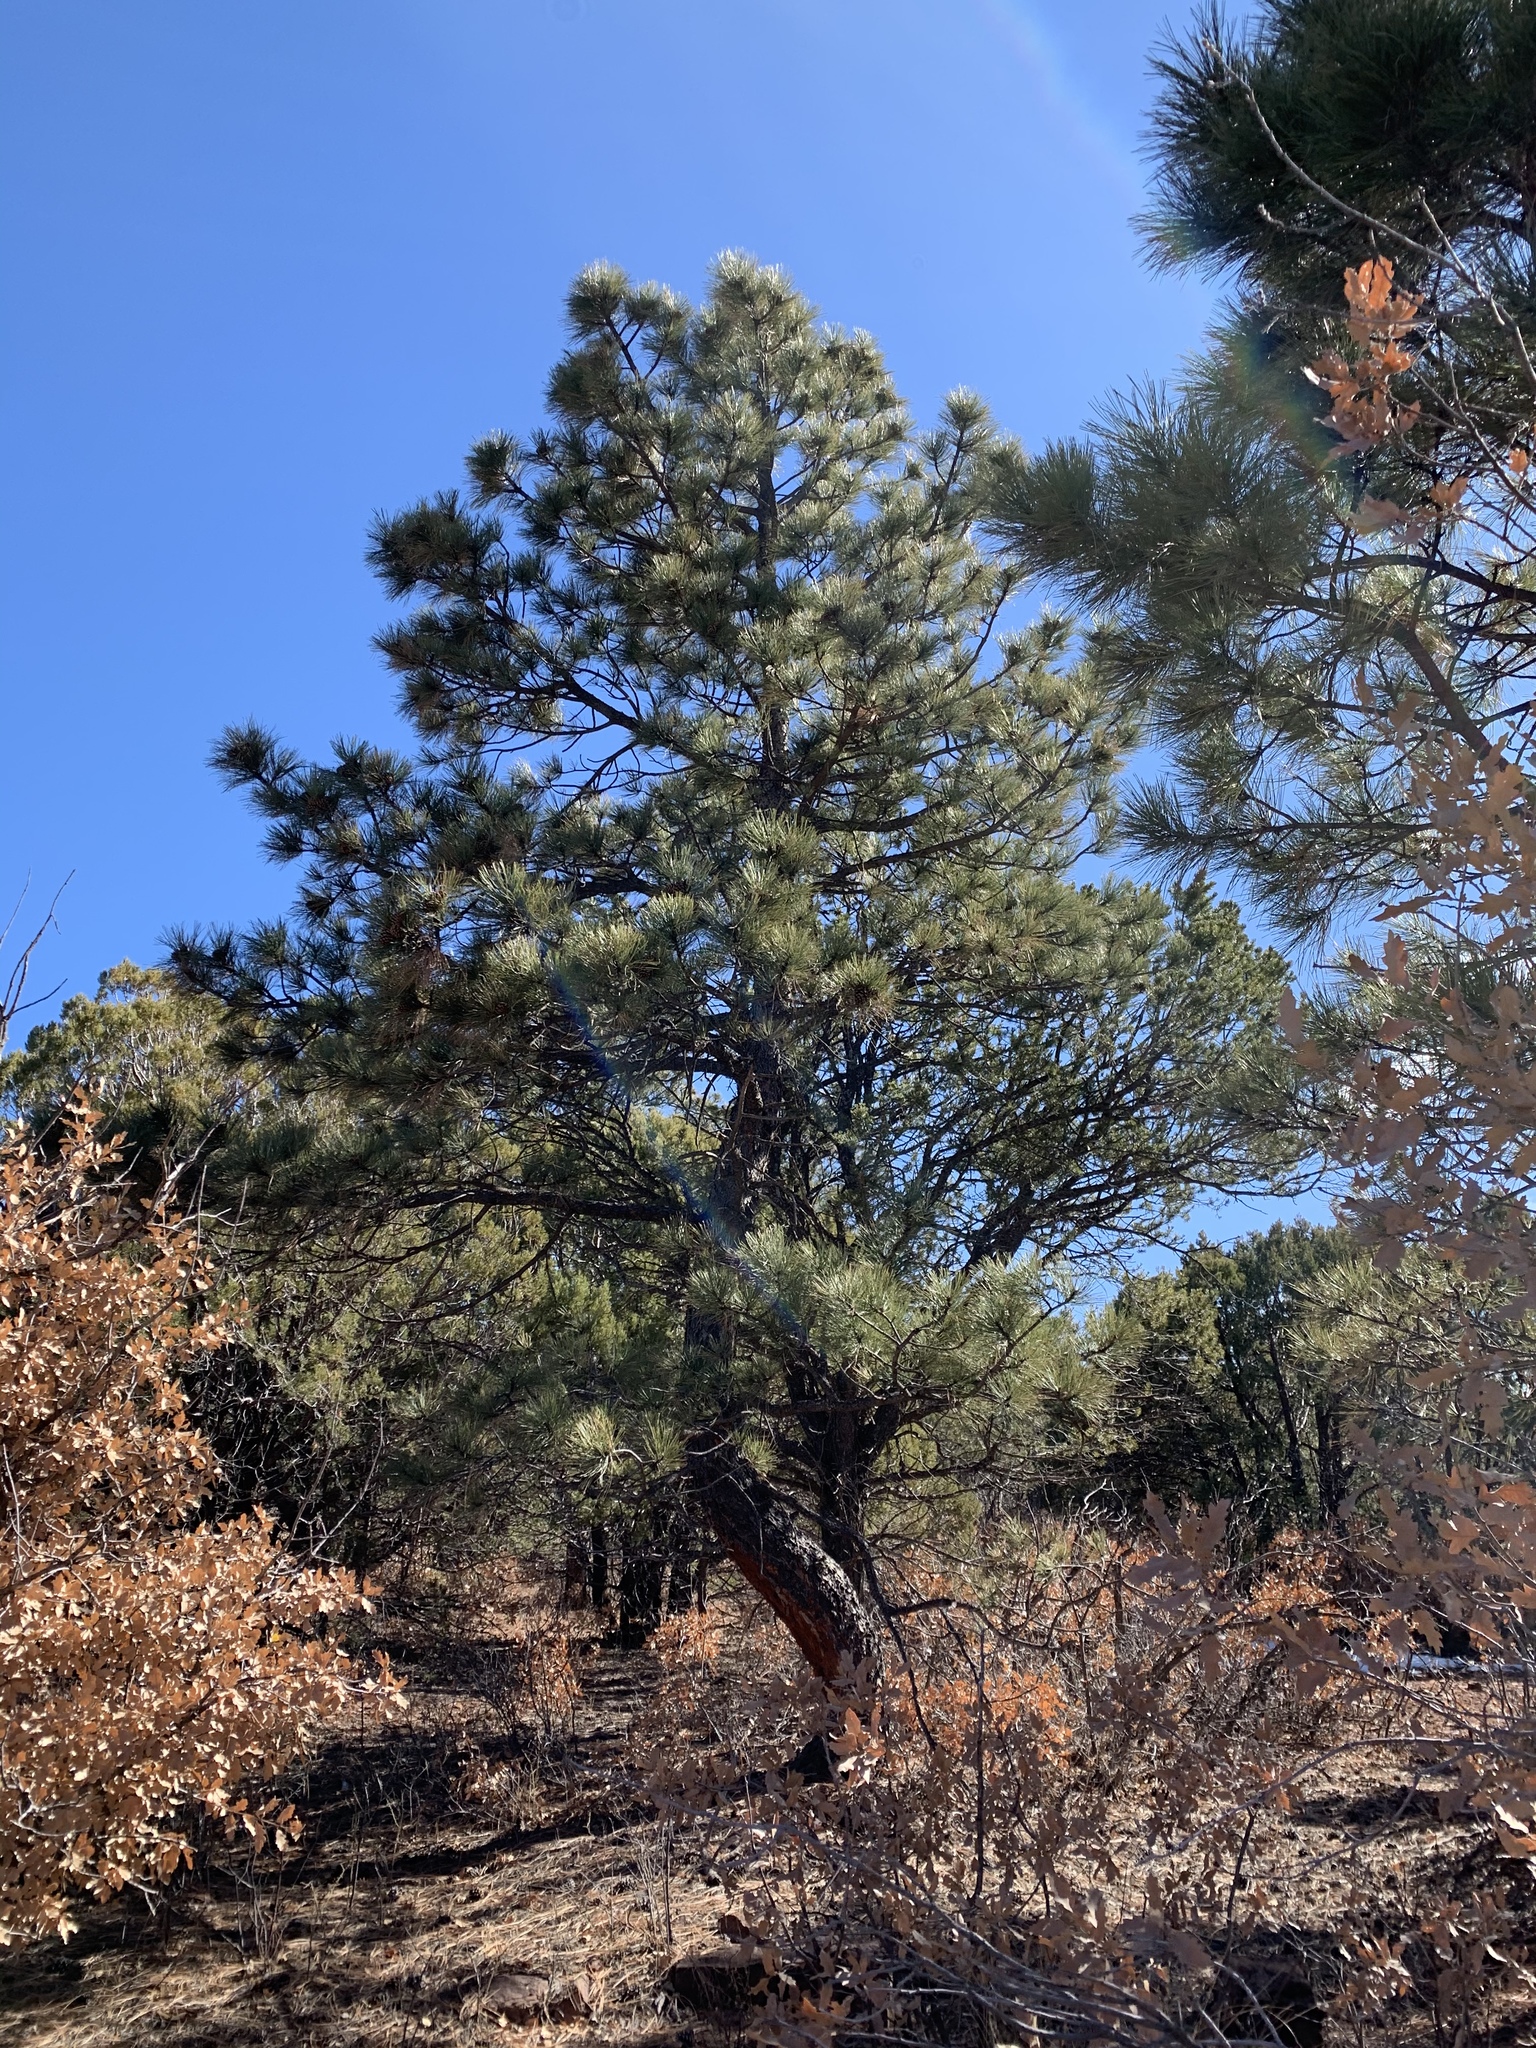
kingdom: Plantae
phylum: Tracheophyta
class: Pinopsida
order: Pinales
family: Pinaceae
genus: Pinus
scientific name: Pinus ponderosa
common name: Western yellow-pine
